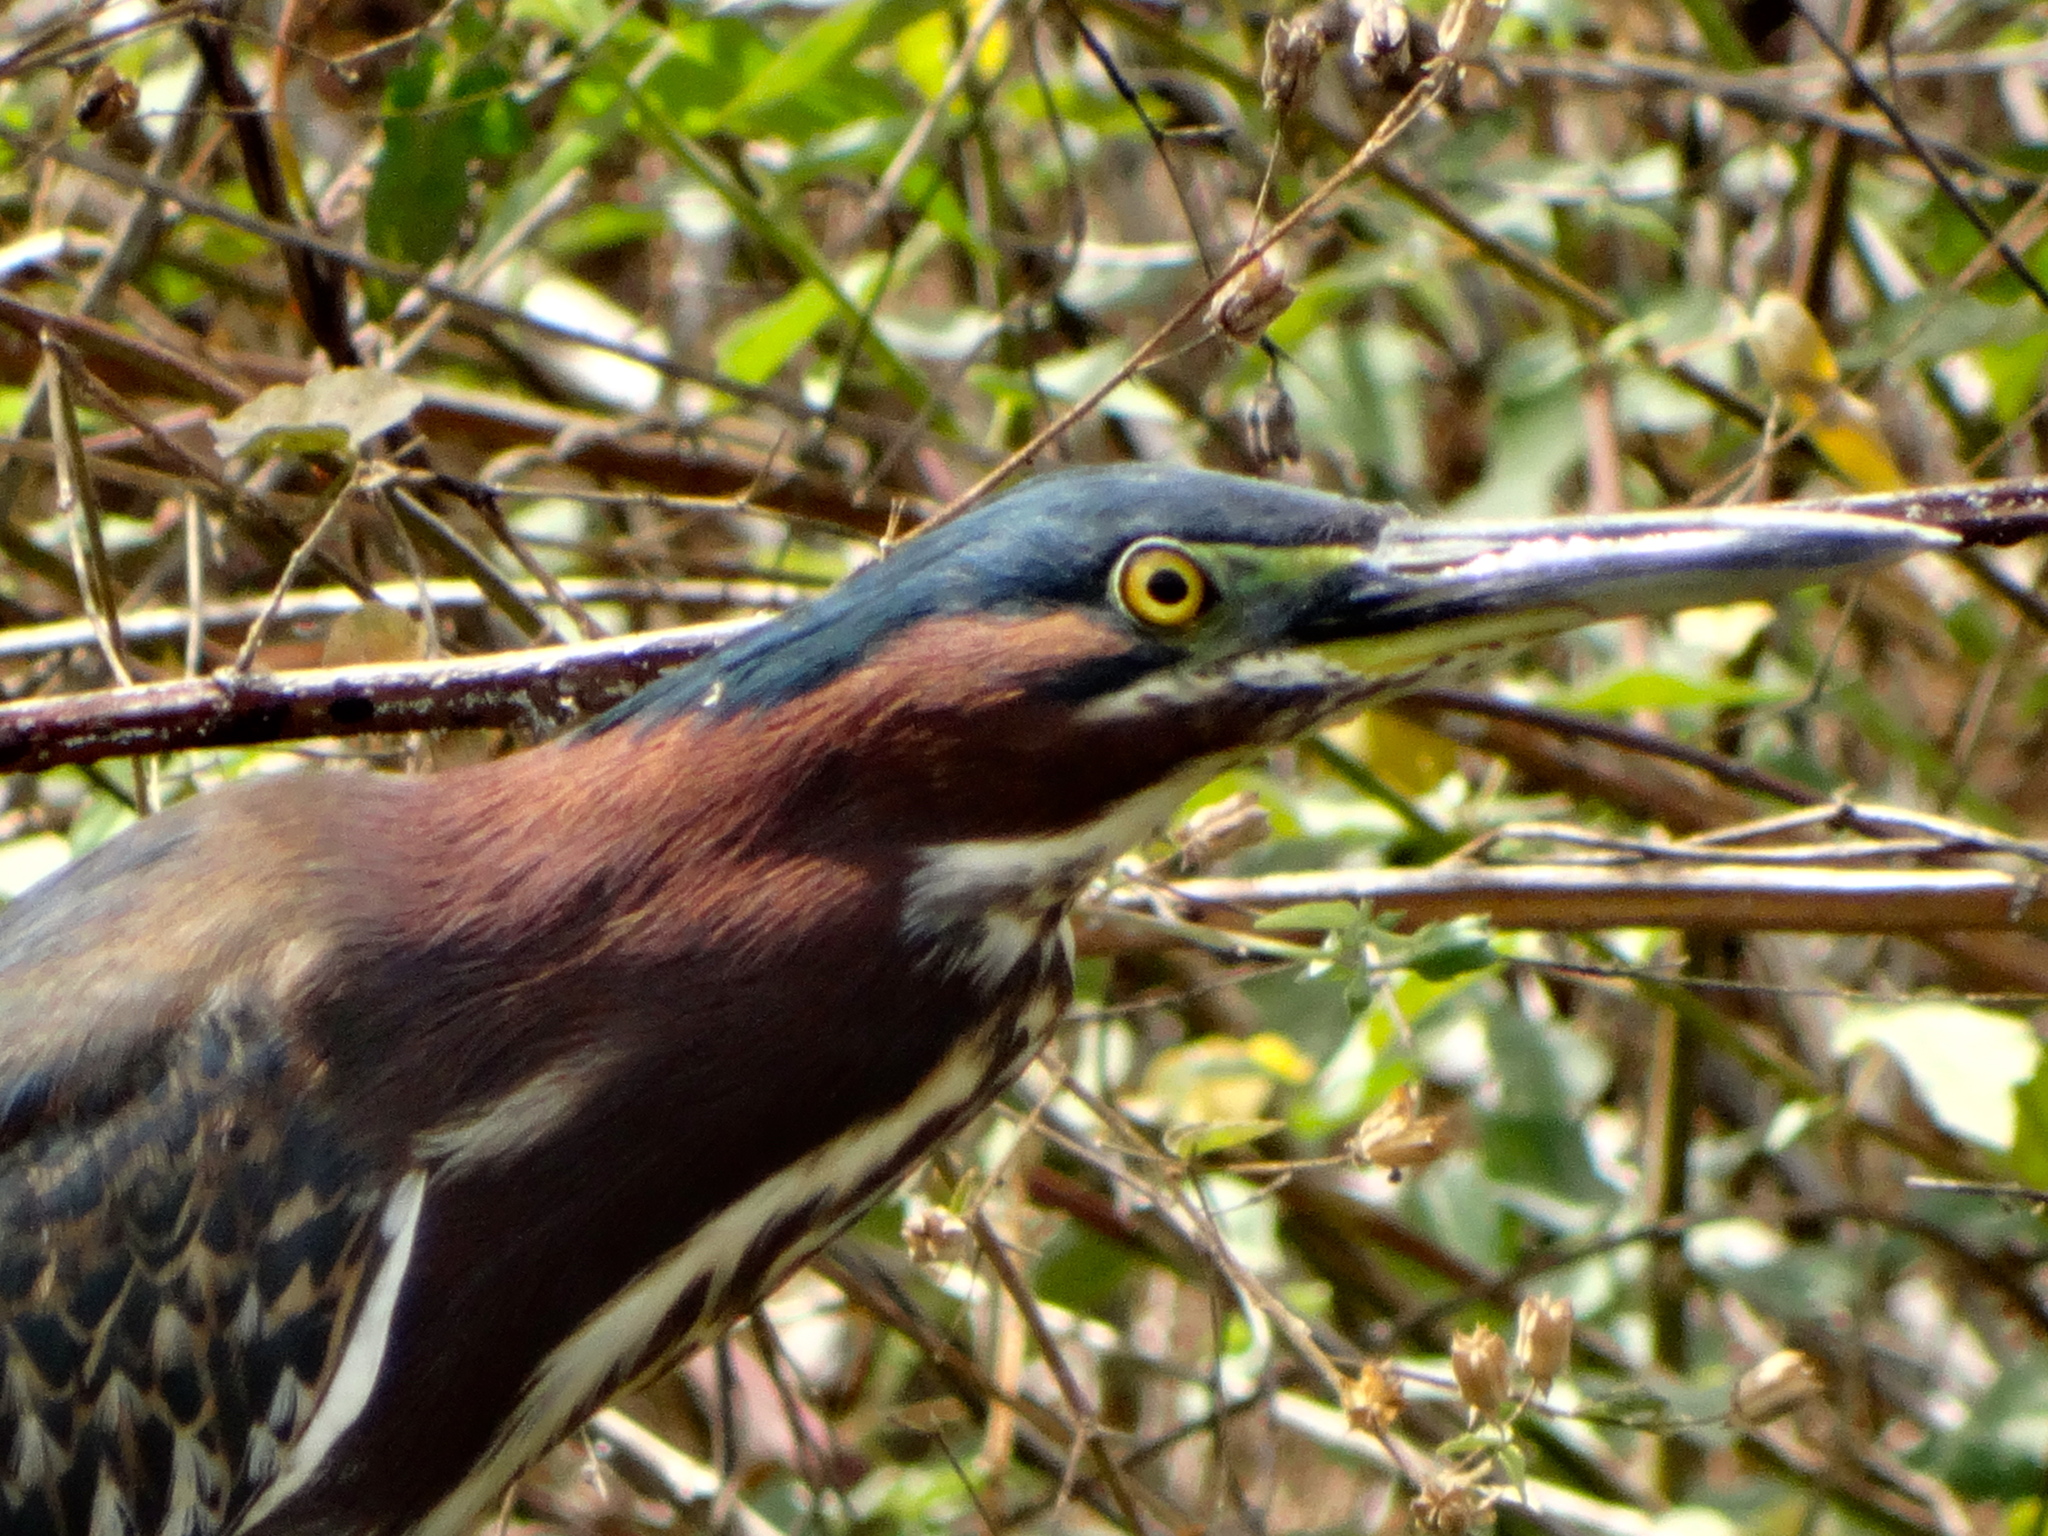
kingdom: Animalia
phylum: Chordata
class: Aves
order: Pelecaniformes
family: Ardeidae
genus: Butorides
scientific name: Butorides virescens
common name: Green heron
